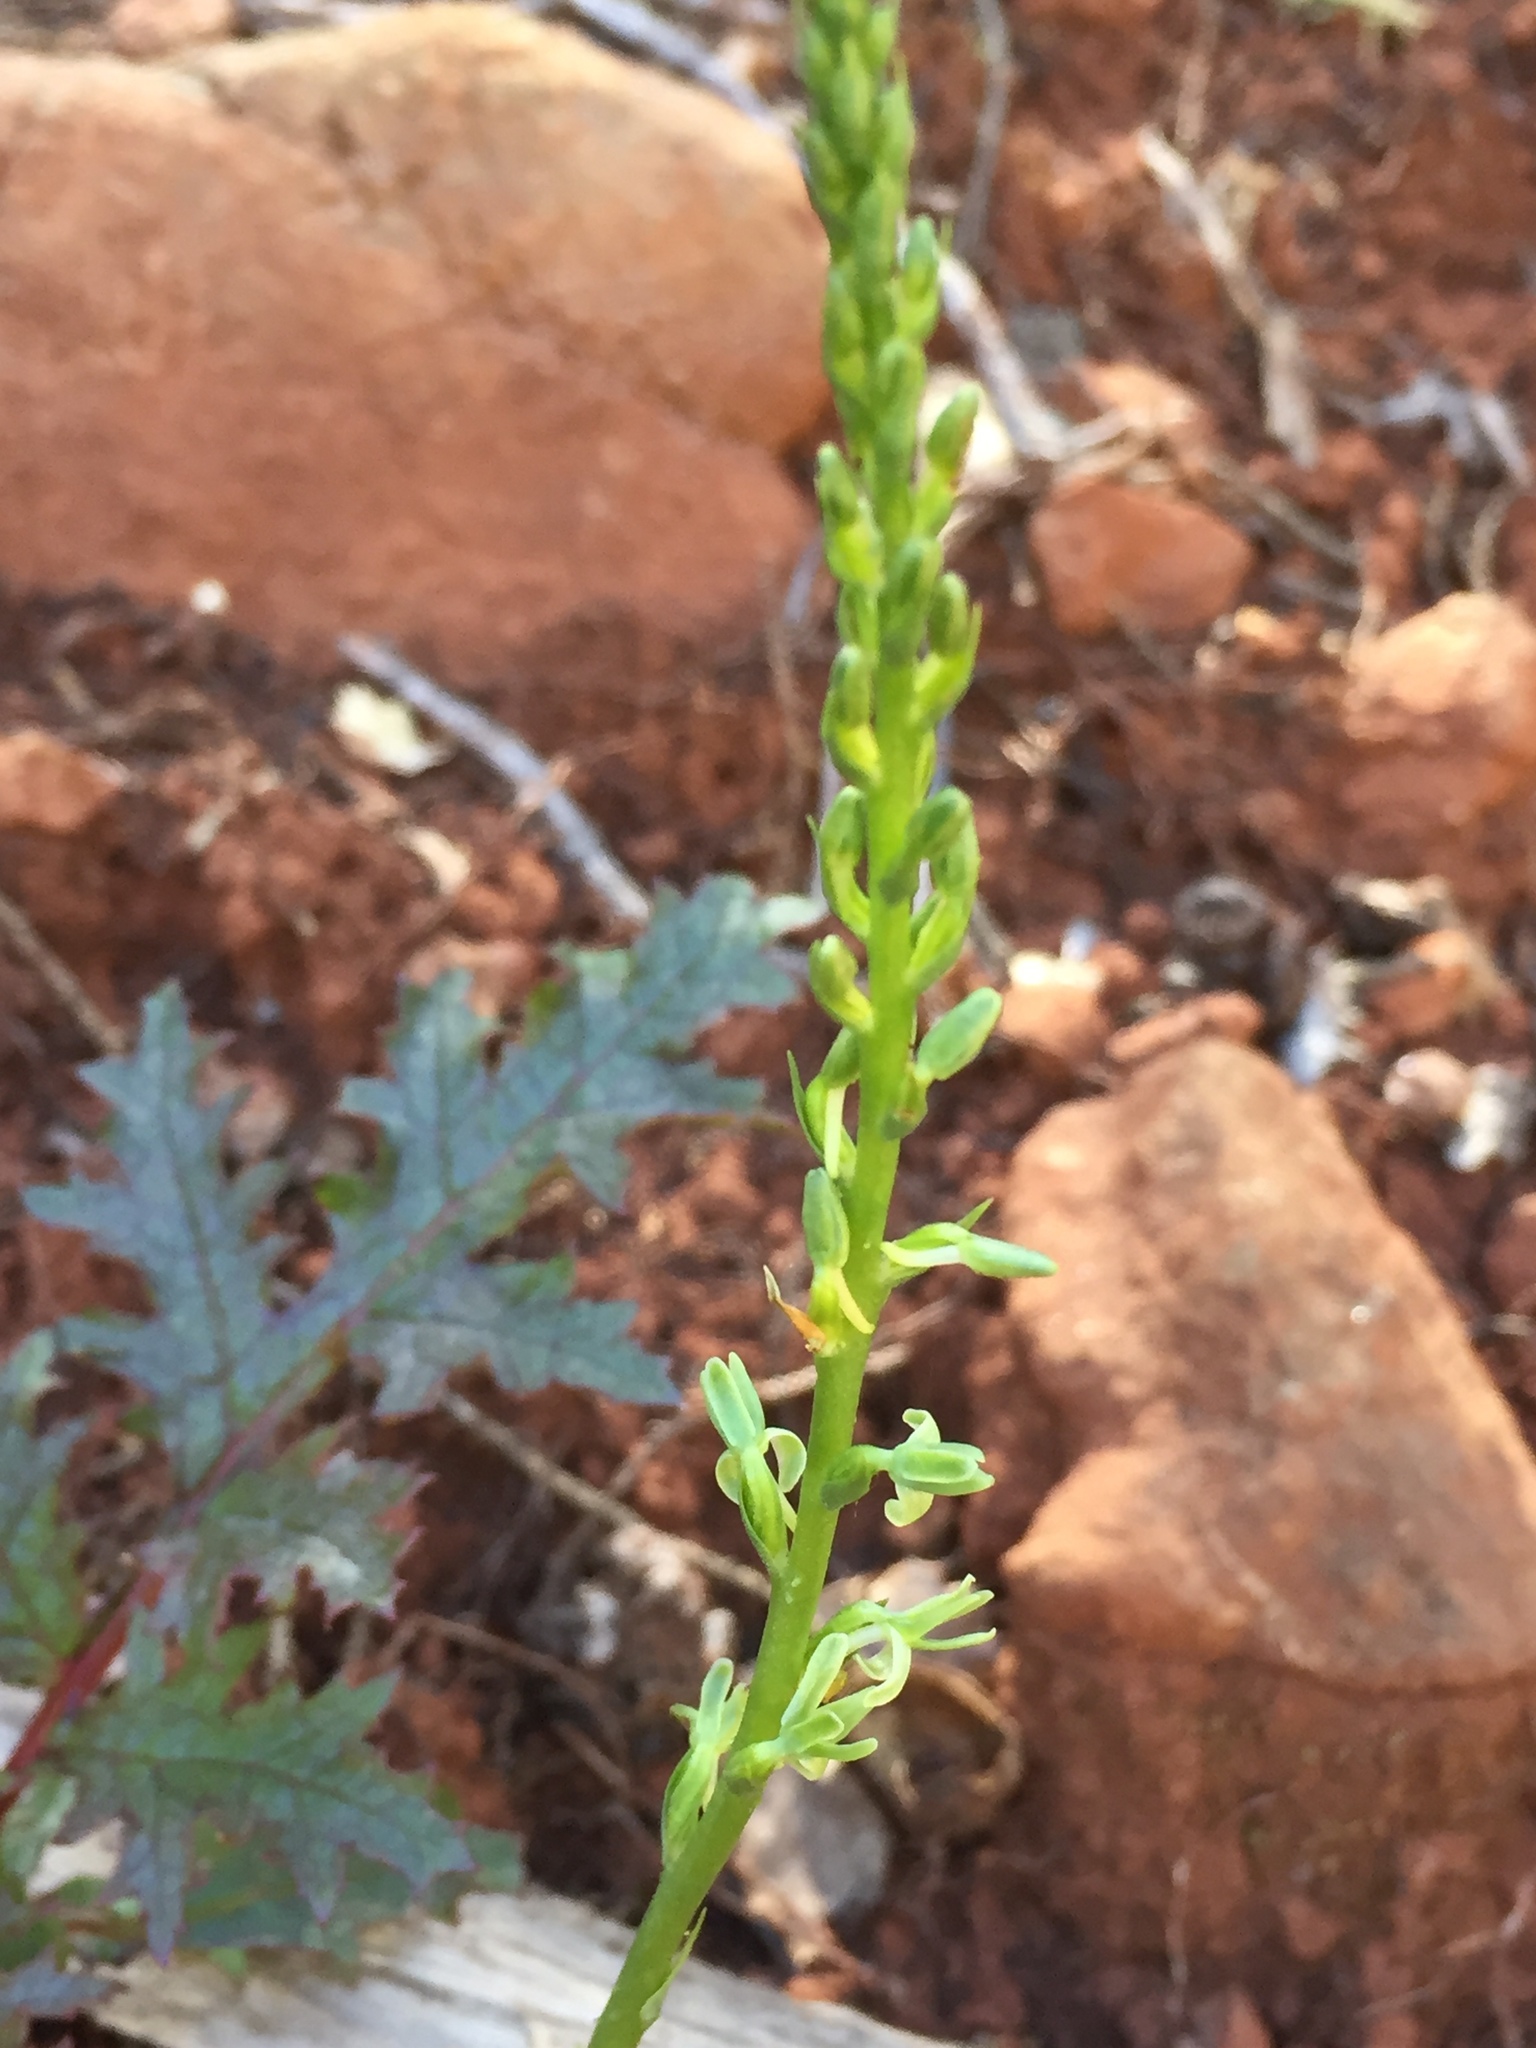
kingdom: Plantae
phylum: Tracheophyta
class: Liliopsida
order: Asparagales
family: Orchidaceae
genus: Platanthera
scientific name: Platanthera leptopetala
